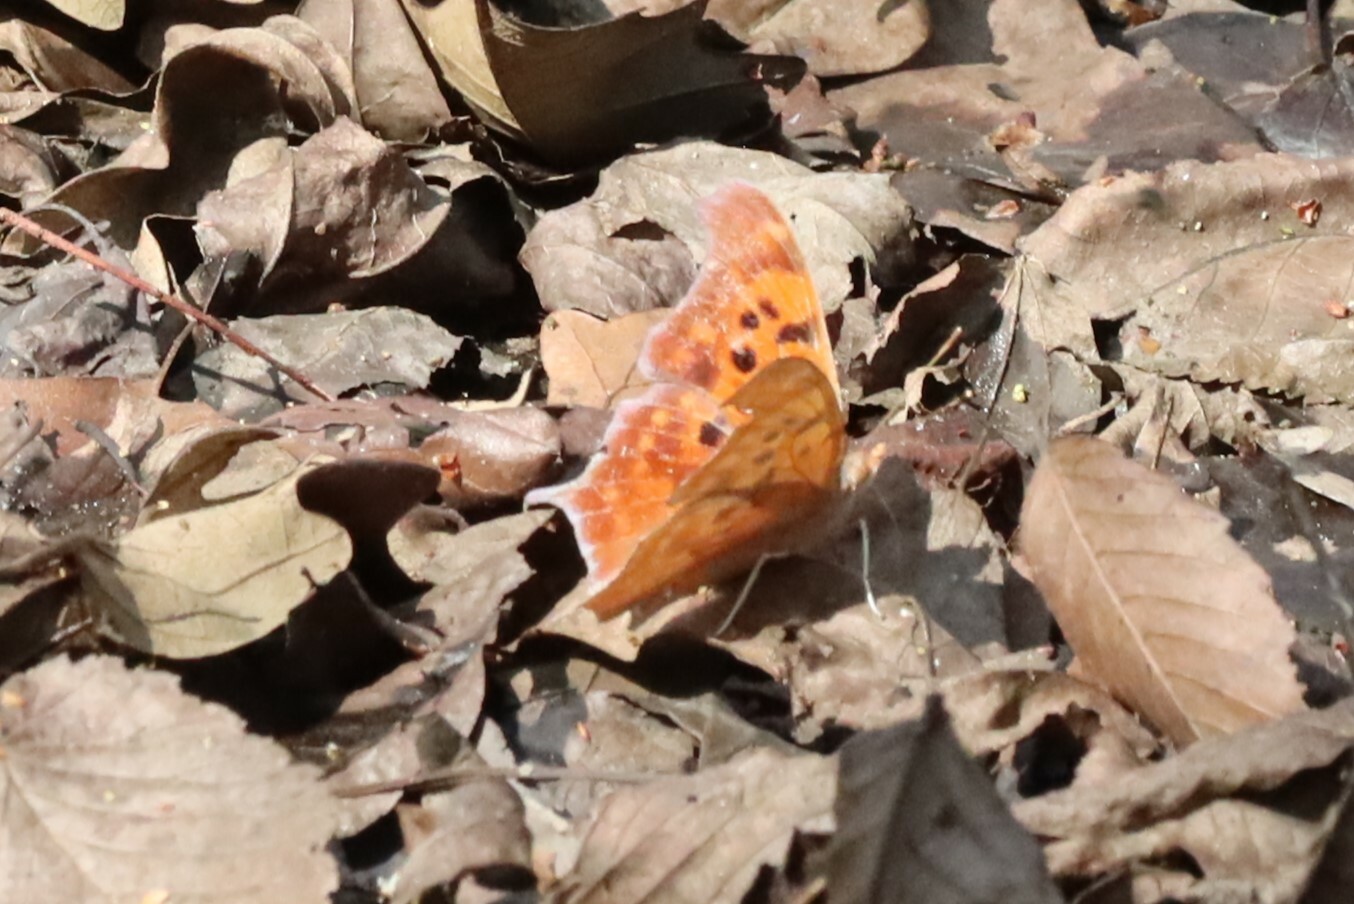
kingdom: Animalia
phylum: Arthropoda
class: Insecta
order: Lepidoptera
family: Nymphalidae
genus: Polygonia
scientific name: Polygonia interrogationis
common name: Question mark
